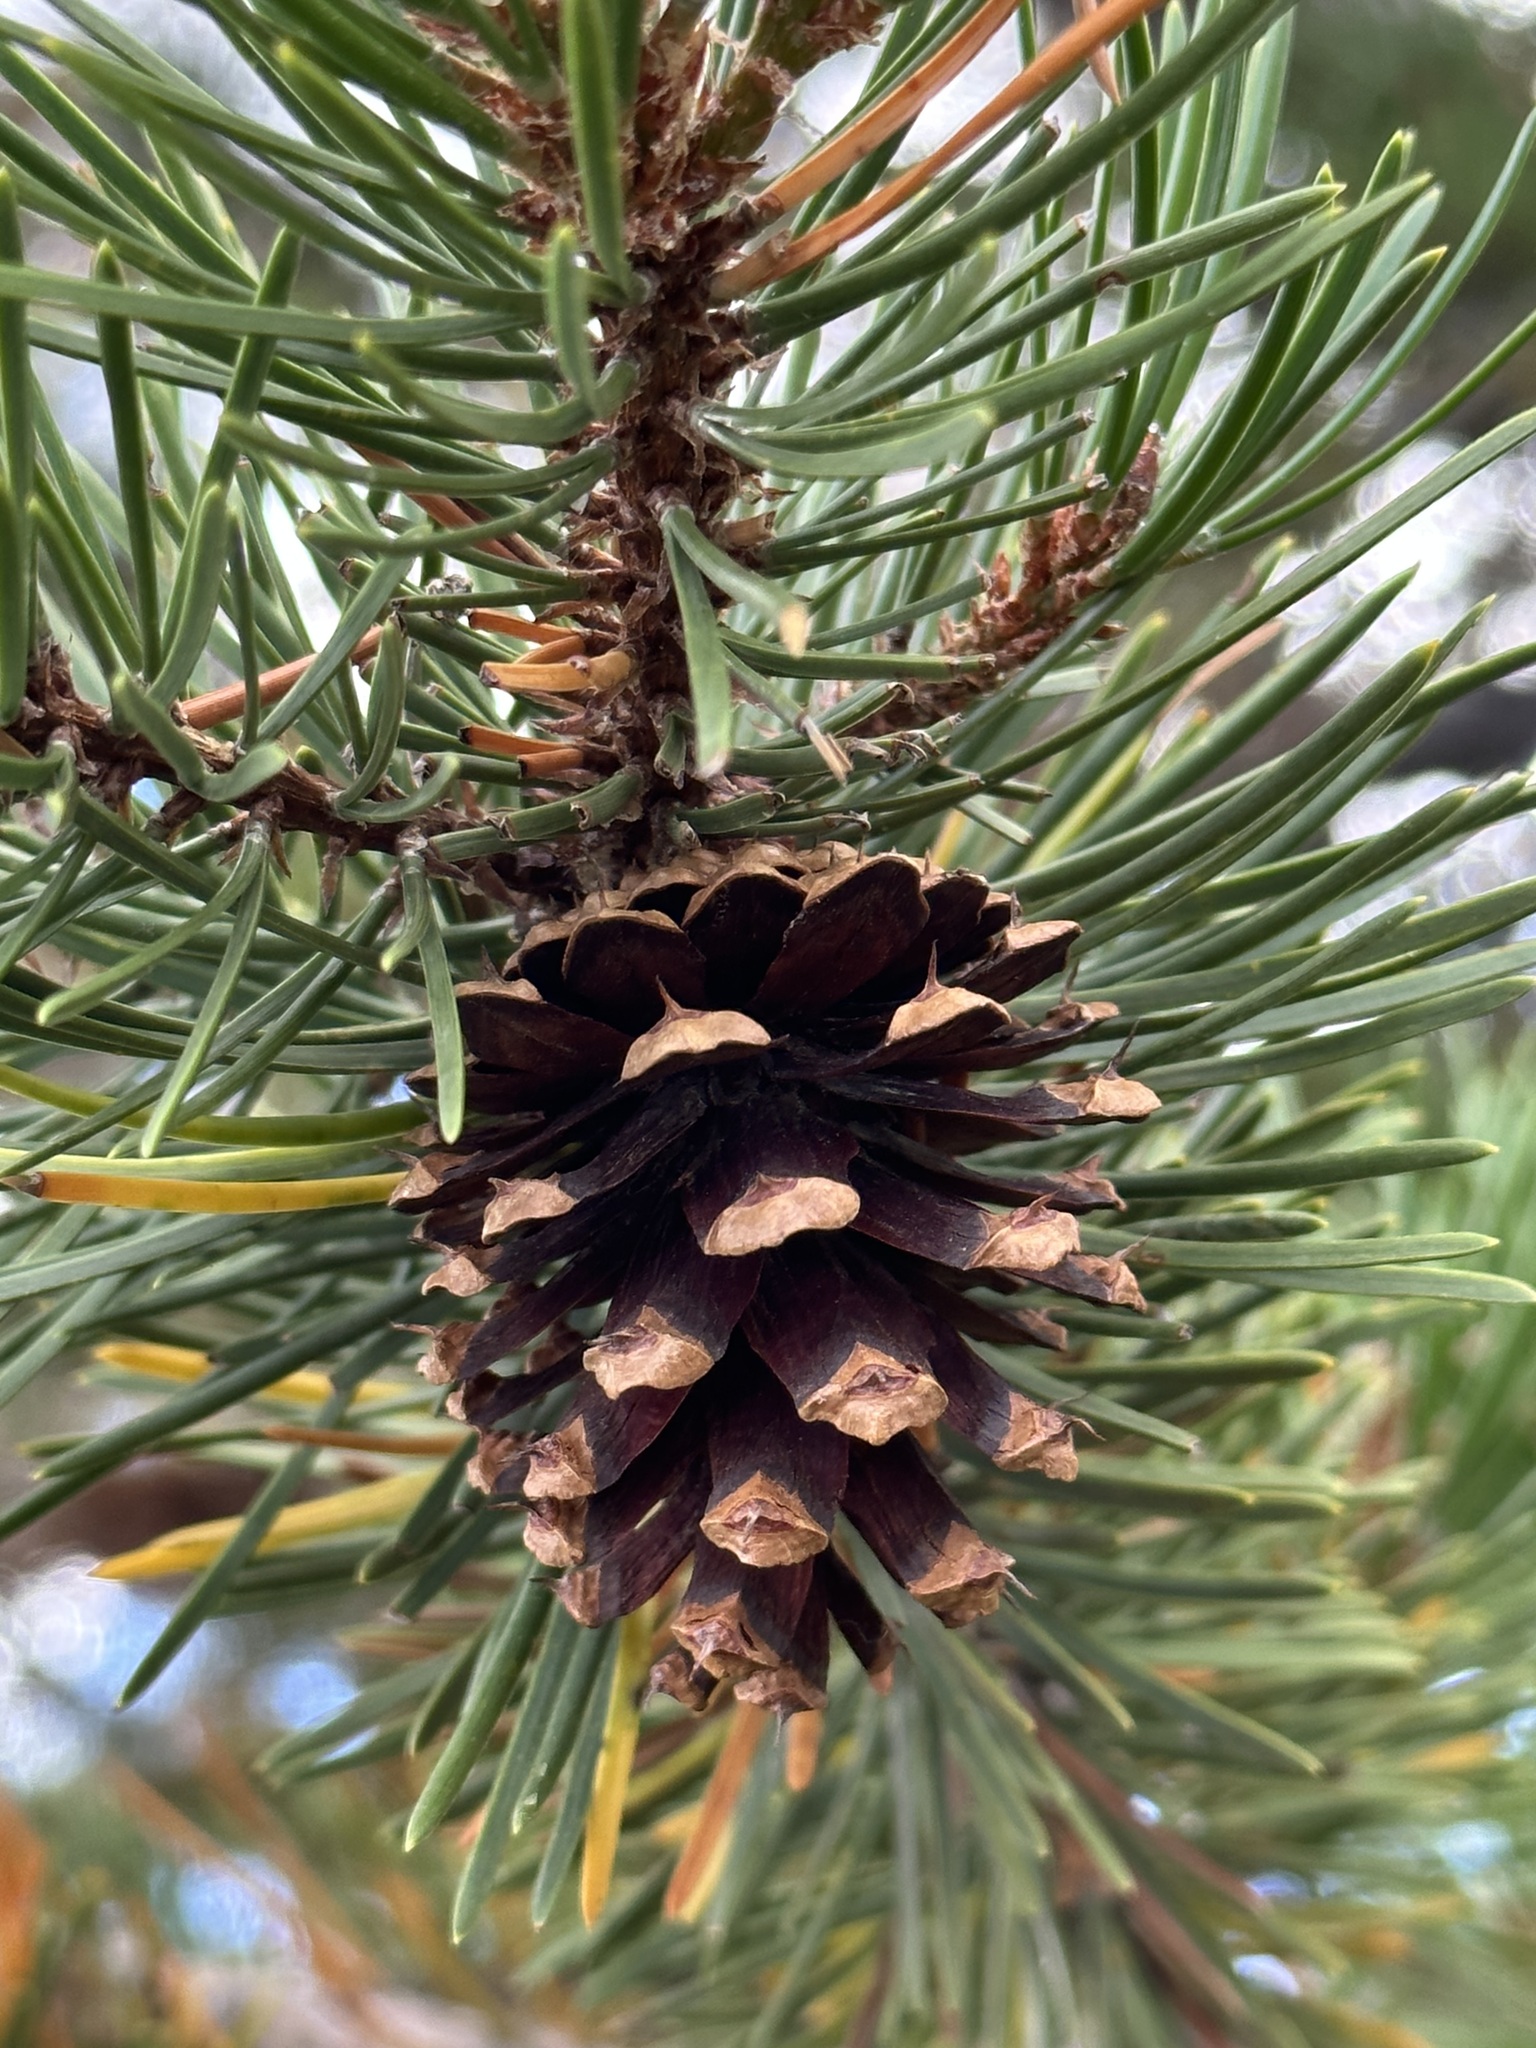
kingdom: Plantae
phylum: Tracheophyta
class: Pinopsida
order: Pinales
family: Pinaceae
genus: Pinus
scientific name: Pinus contorta
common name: Lodgepole pine
